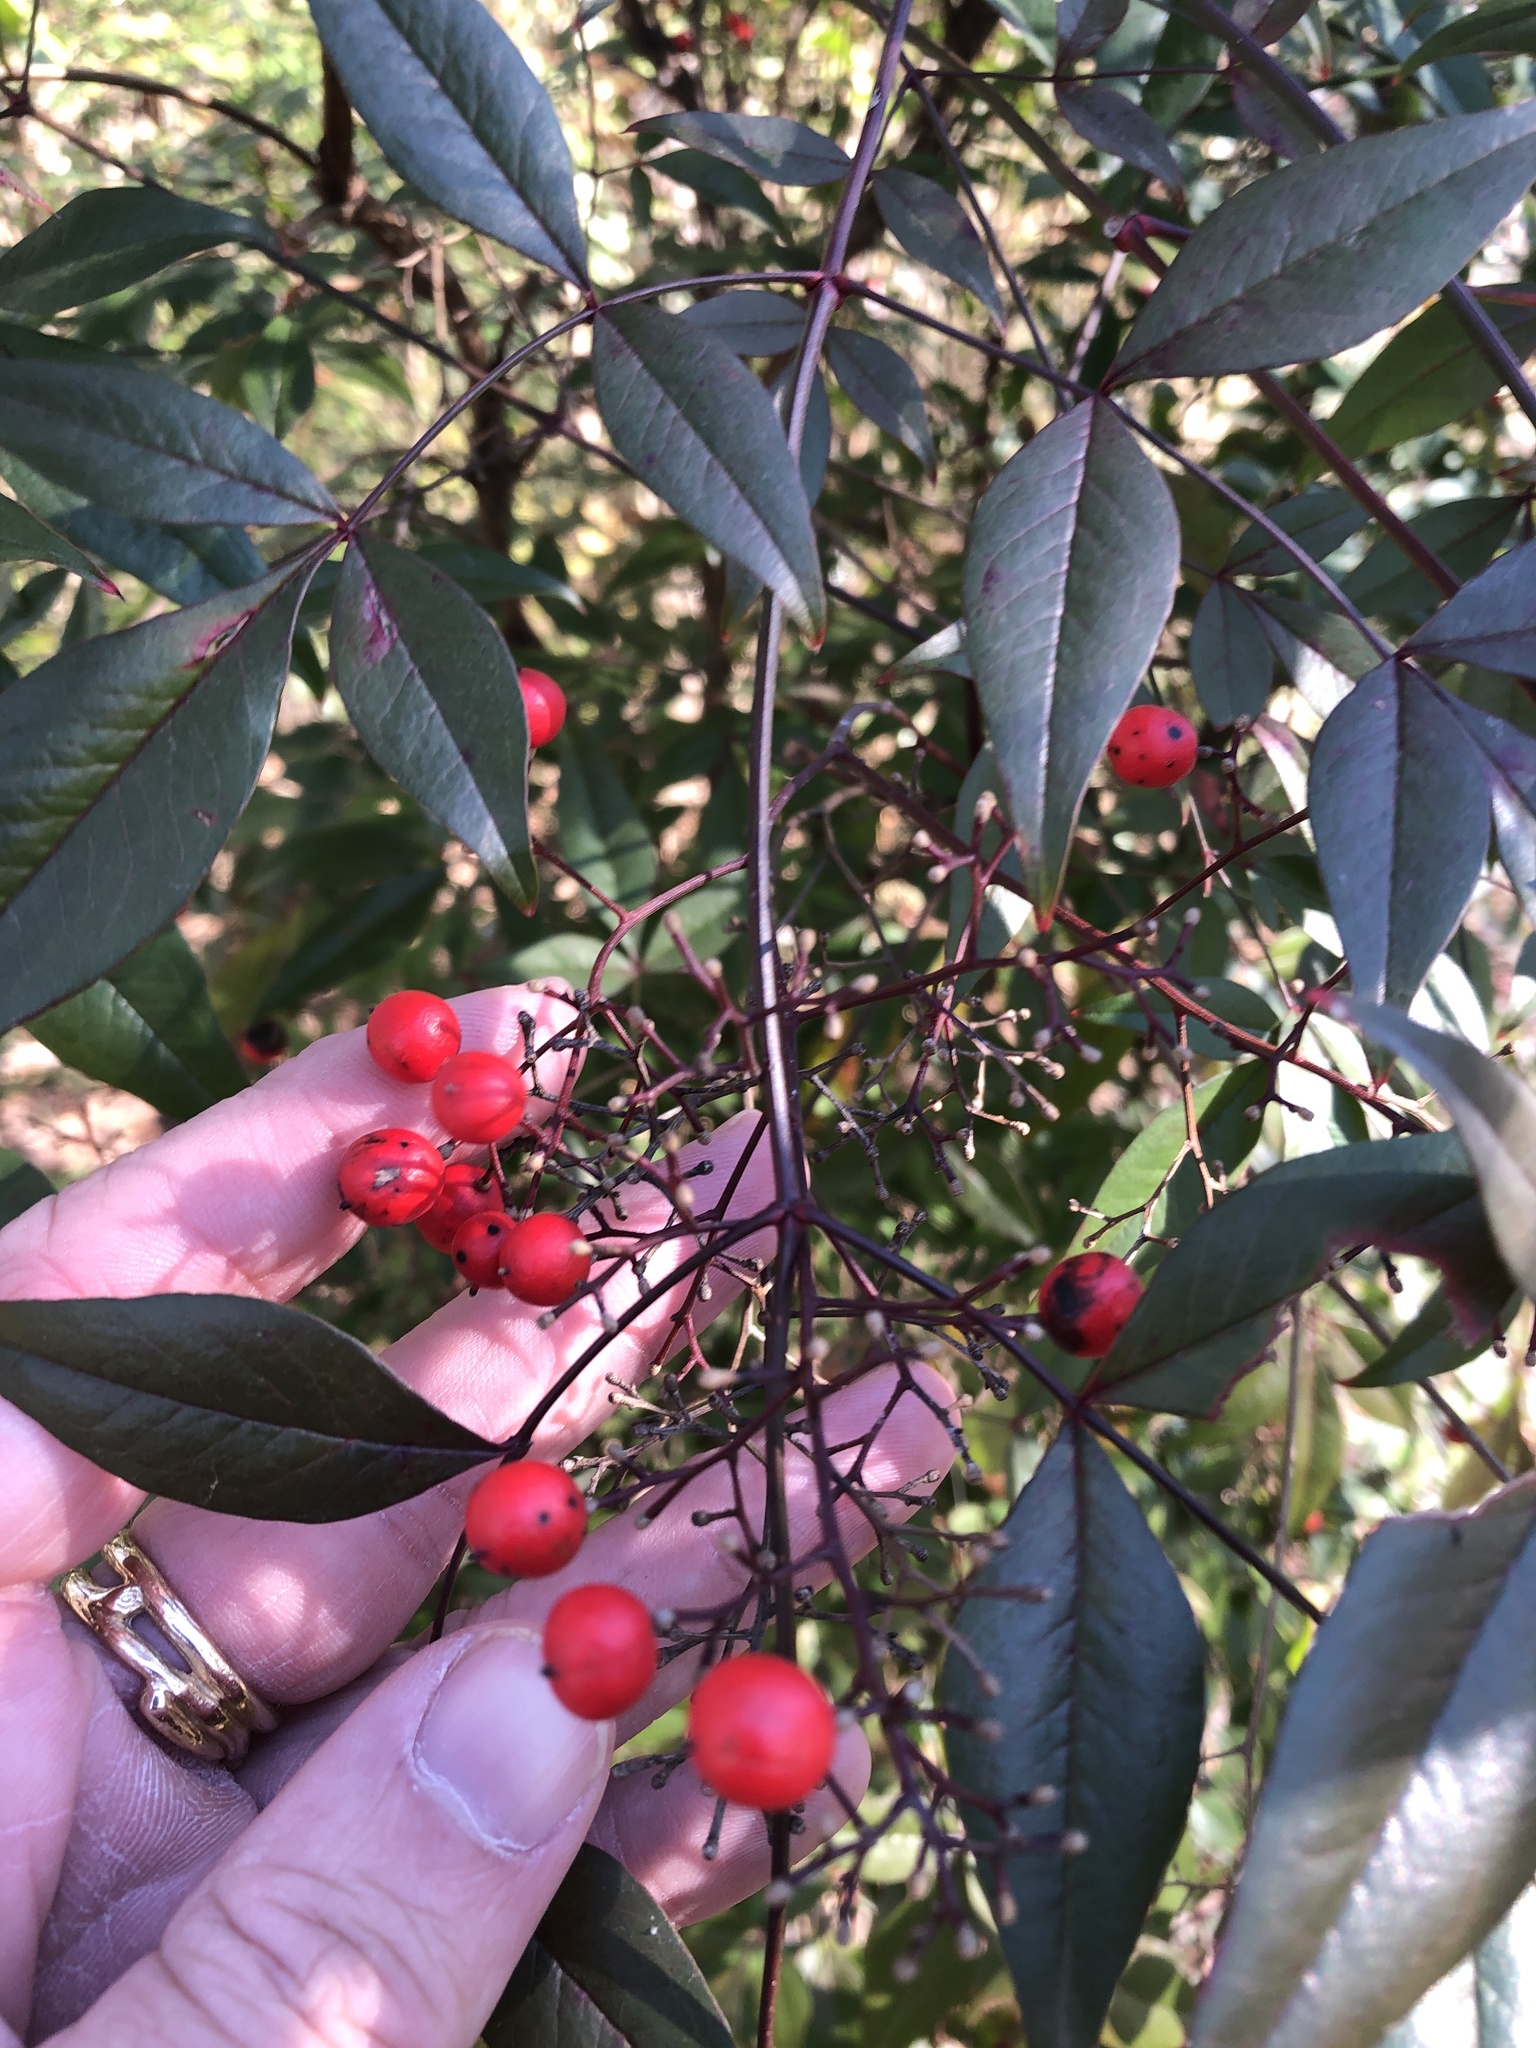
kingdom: Plantae
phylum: Tracheophyta
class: Magnoliopsida
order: Ranunculales
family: Berberidaceae
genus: Nandina
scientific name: Nandina domestica
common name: Sacred bamboo
